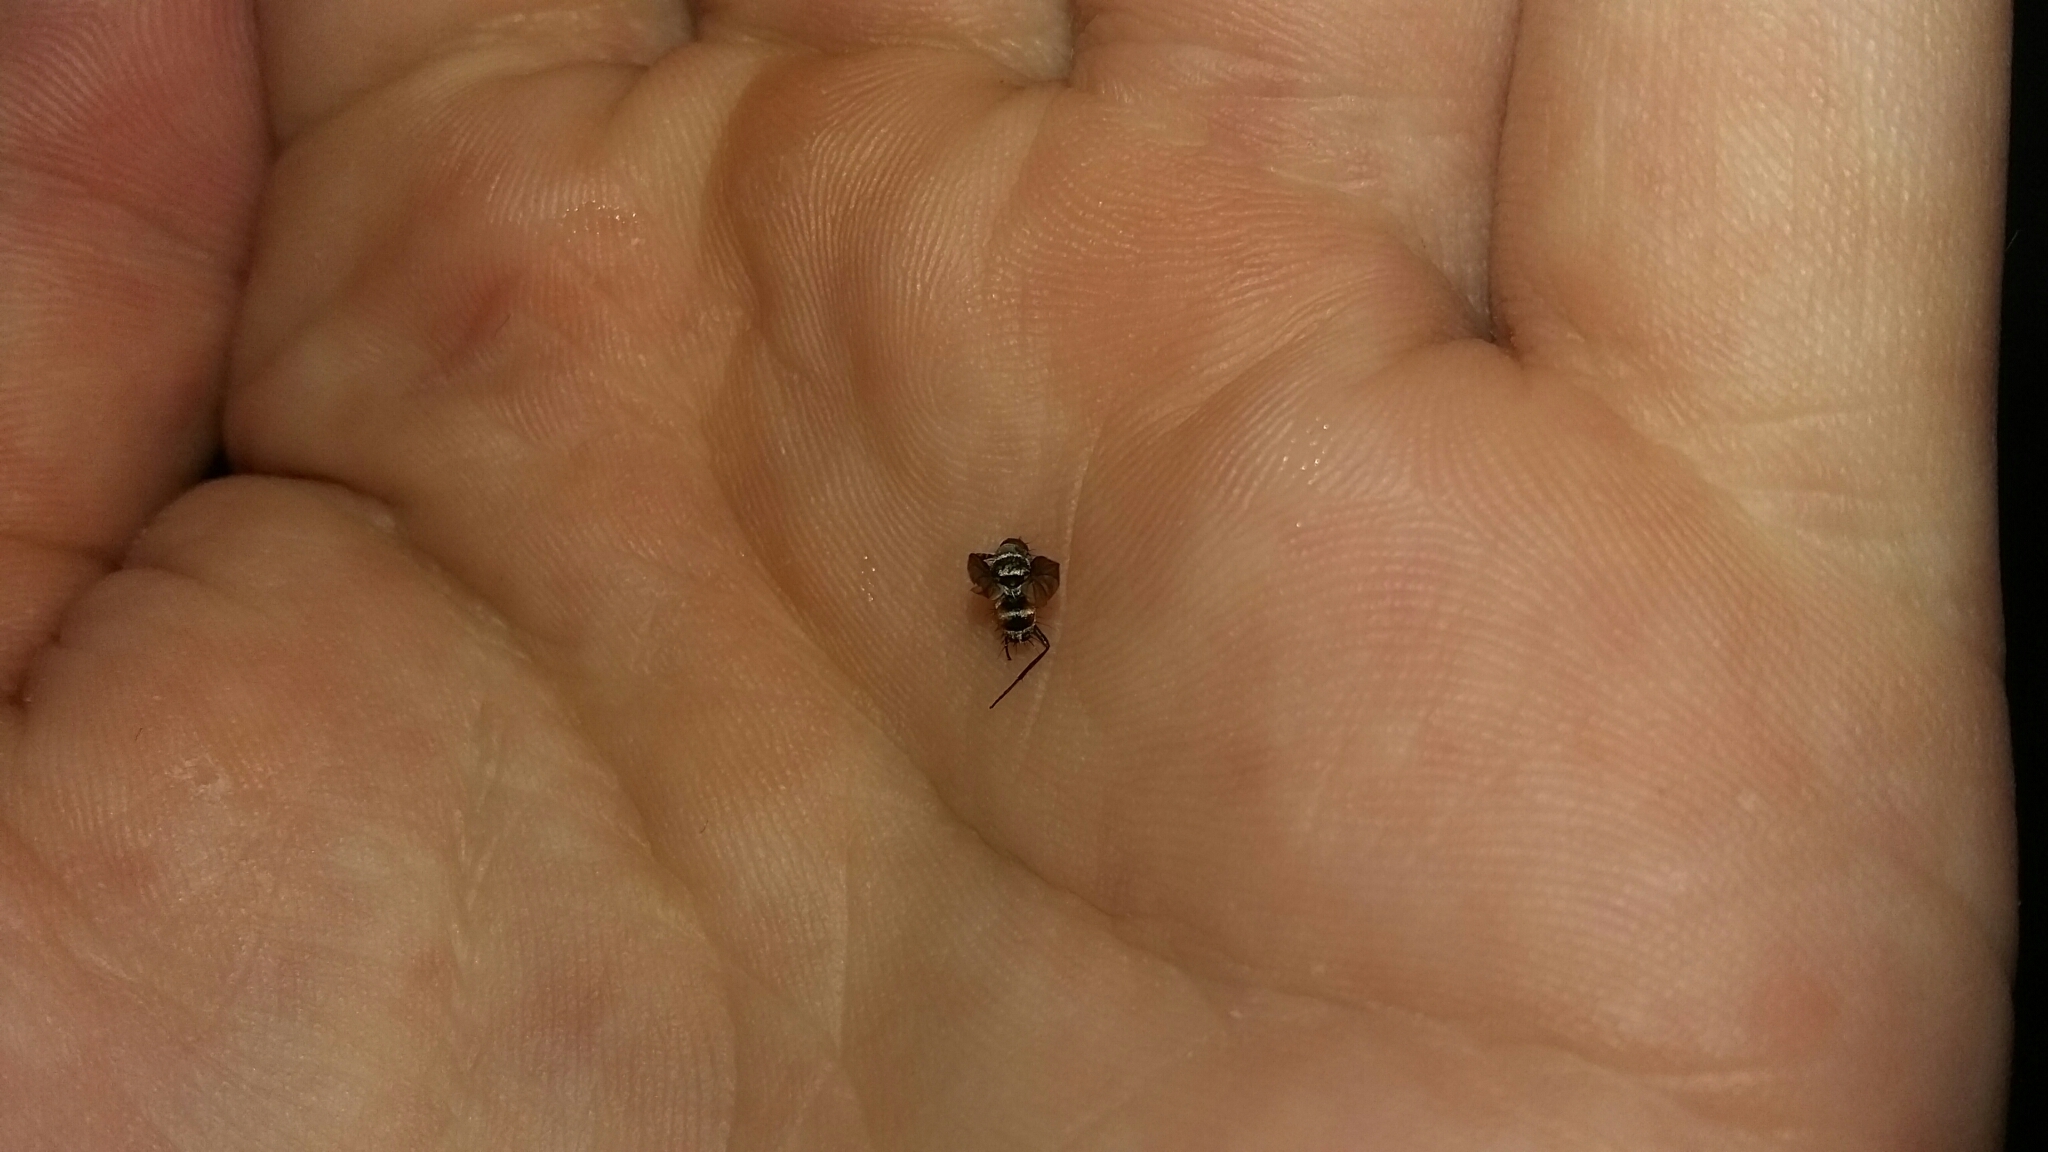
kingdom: Animalia
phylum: Arthropoda
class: Insecta
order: Diptera
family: Tachinidae
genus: Trigonospila
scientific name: Trigonospila brevifacies
